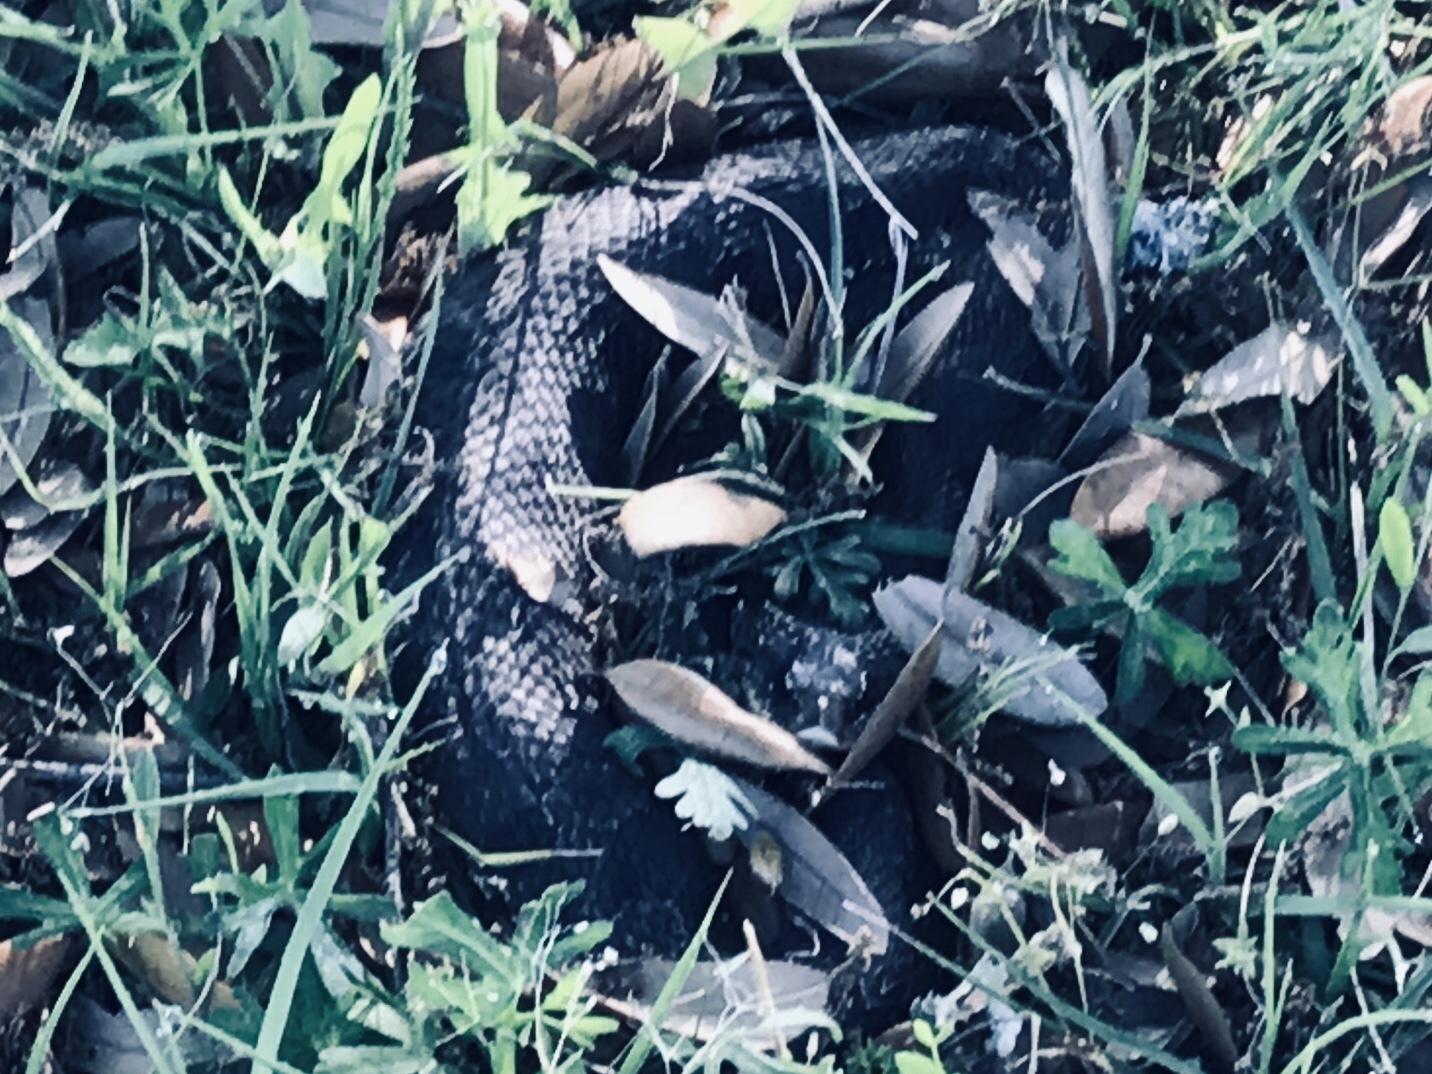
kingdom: Animalia
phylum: Chordata
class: Squamata
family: Colubridae
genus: Heterodon
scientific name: Heterodon platirhinos
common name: Eastern hognose snake
